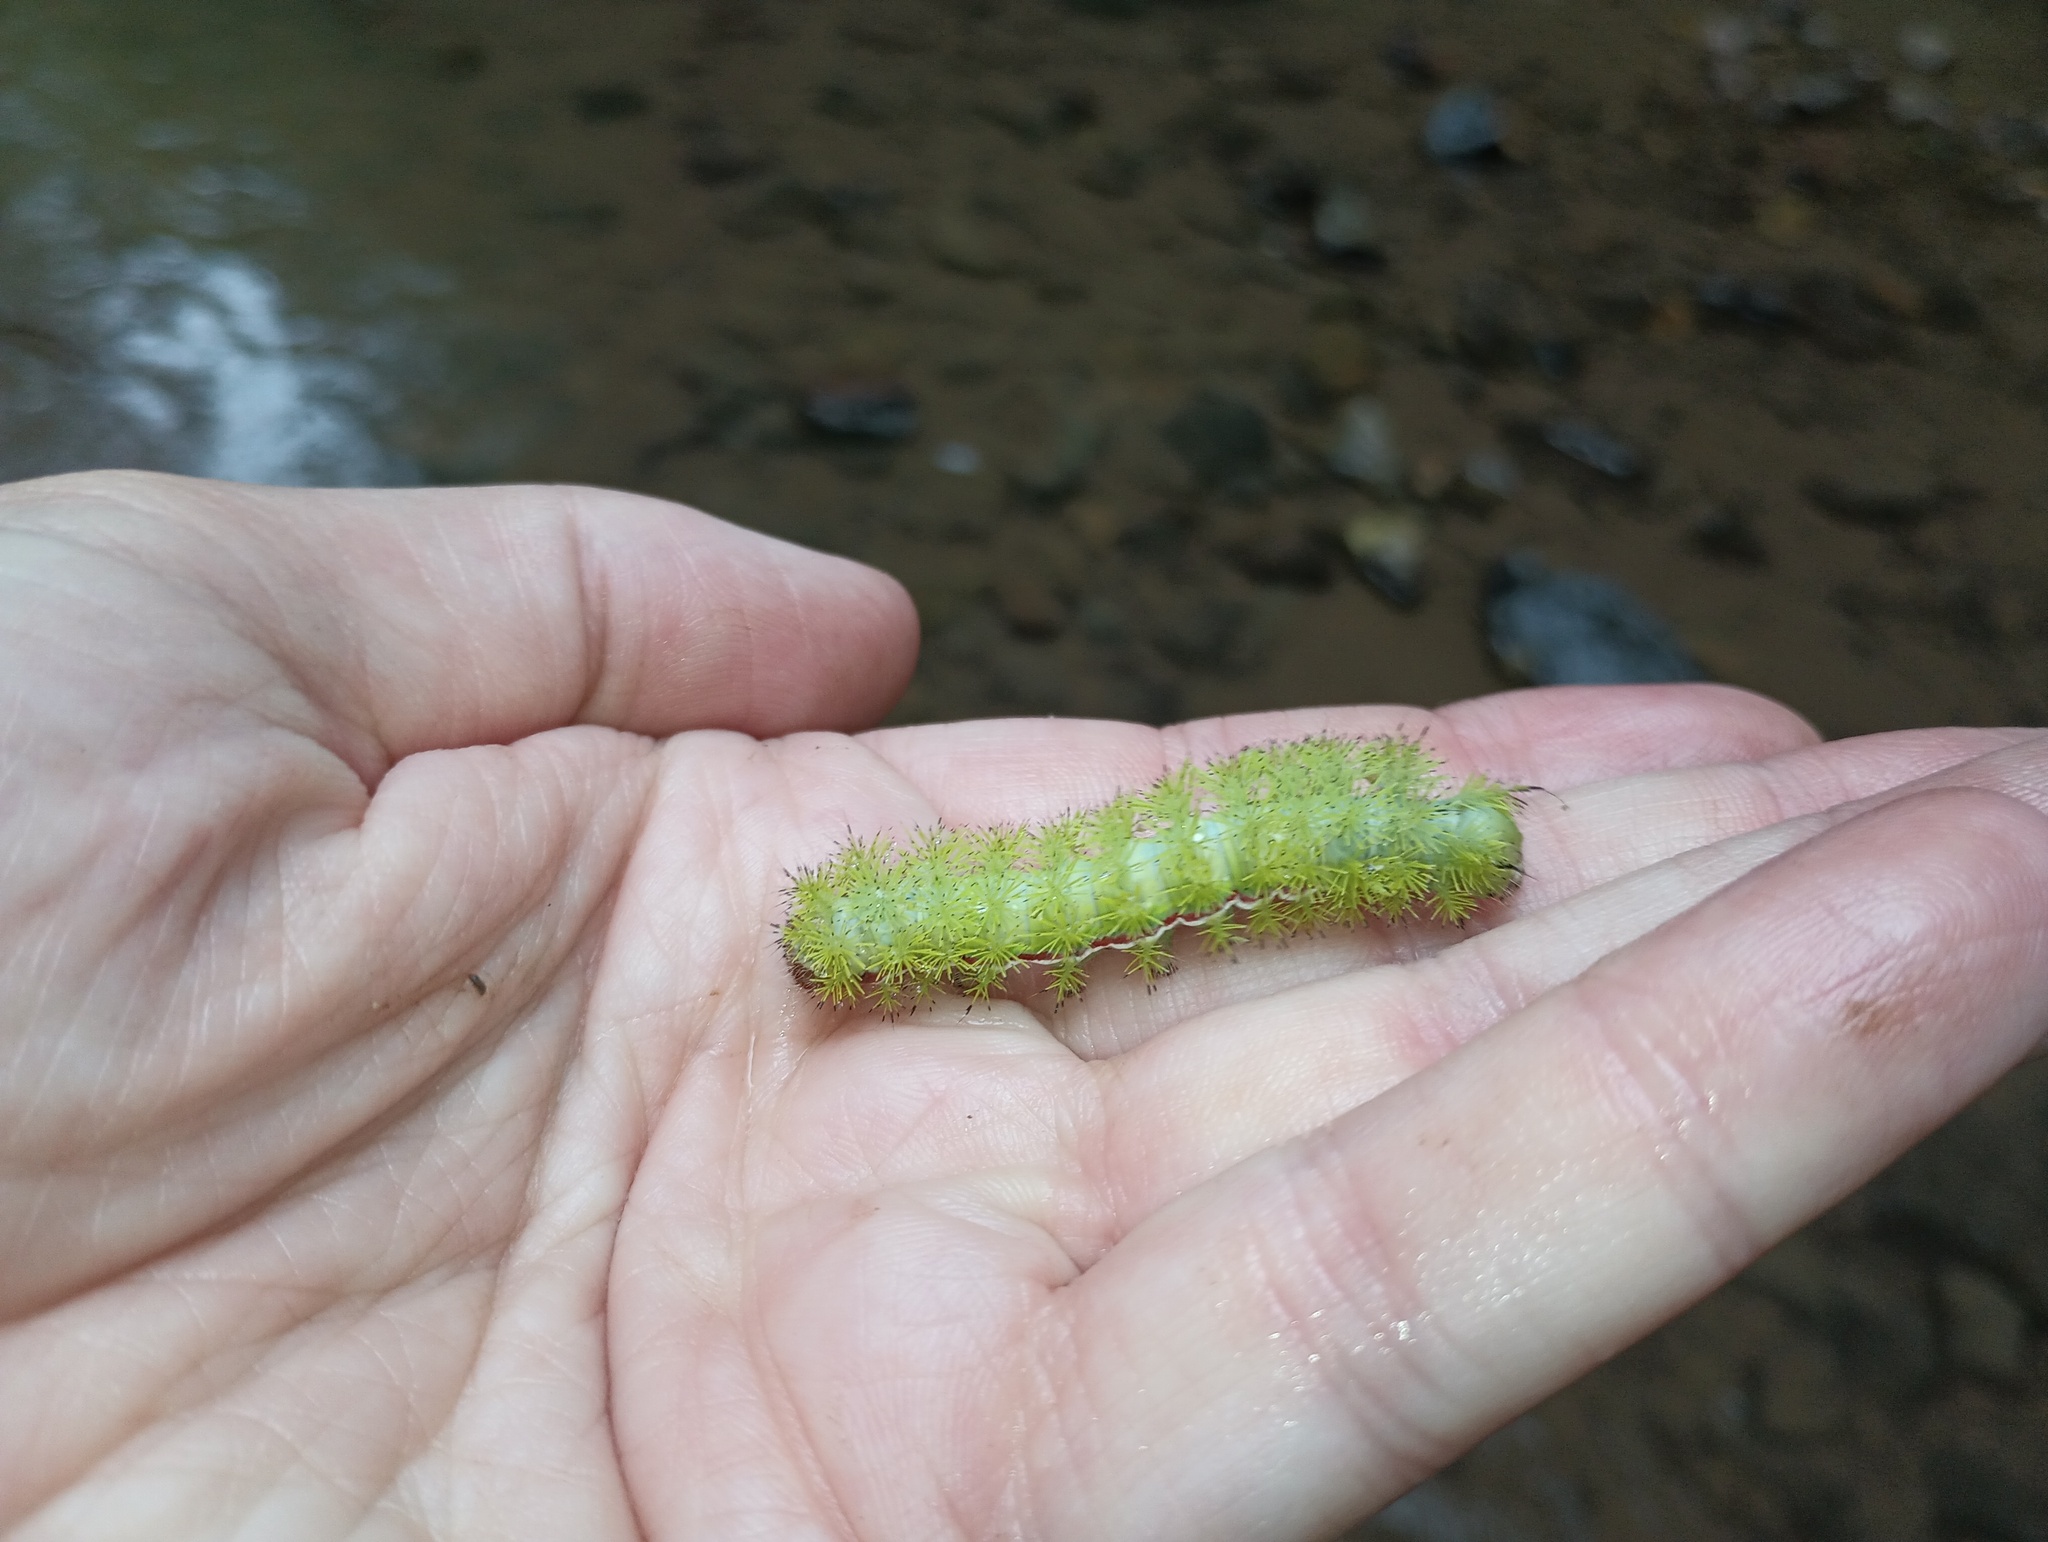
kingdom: Animalia
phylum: Arthropoda
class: Insecta
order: Lepidoptera
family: Saturniidae
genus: Automeris
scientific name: Automeris io
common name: Io moth
